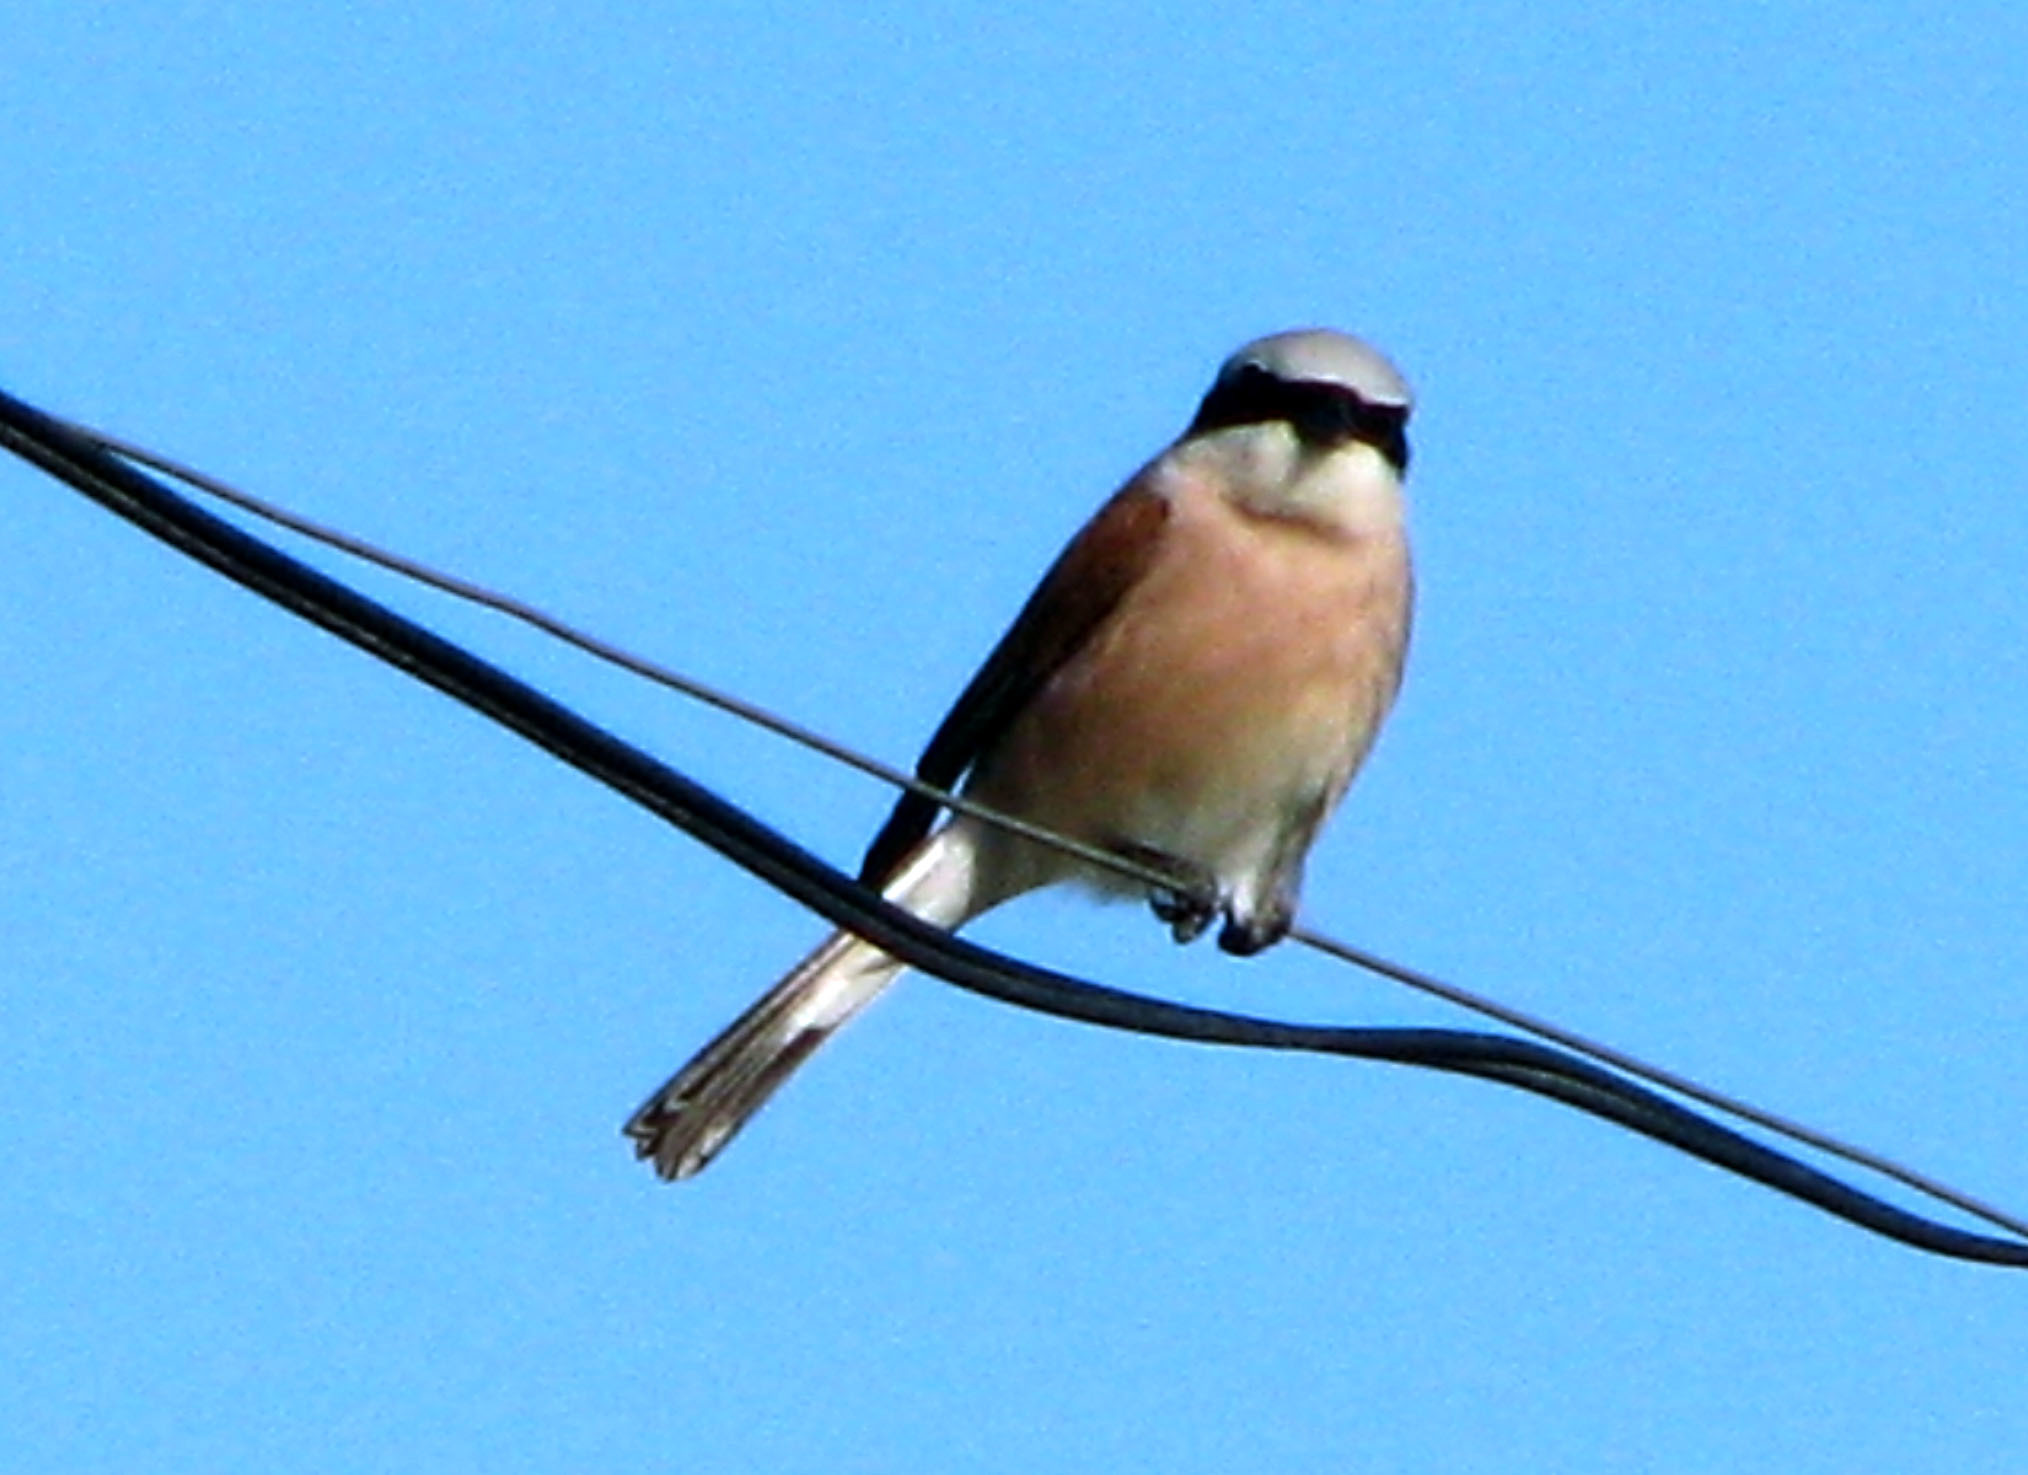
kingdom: Animalia
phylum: Chordata
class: Aves
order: Passeriformes
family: Laniidae
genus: Lanius
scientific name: Lanius collurio
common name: Red-backed shrike
